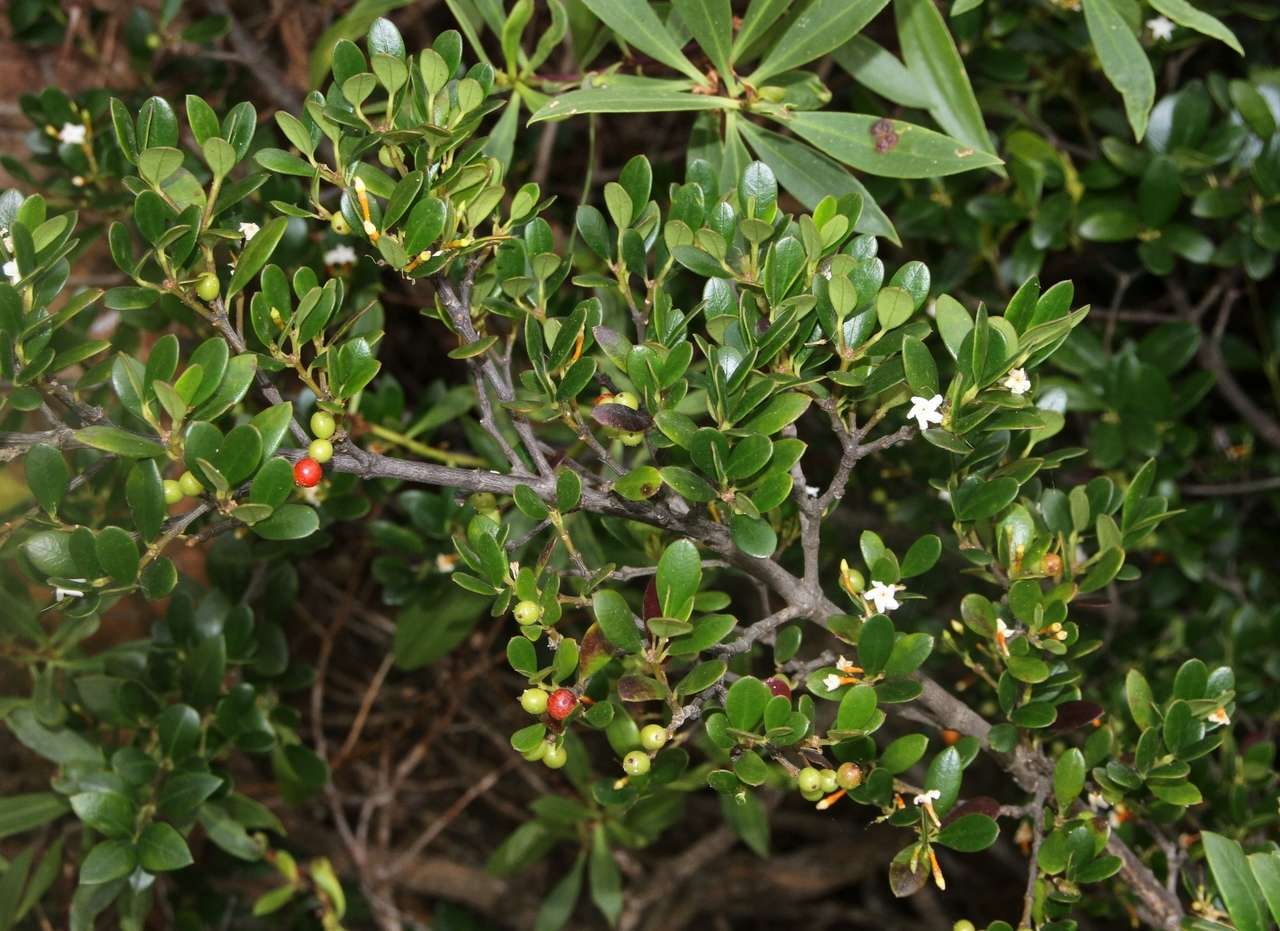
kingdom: Plantae
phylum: Tracheophyta
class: Magnoliopsida
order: Gentianales
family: Apocynaceae
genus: Alyxia
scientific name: Alyxia buxifolia
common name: Dysentery-bush
